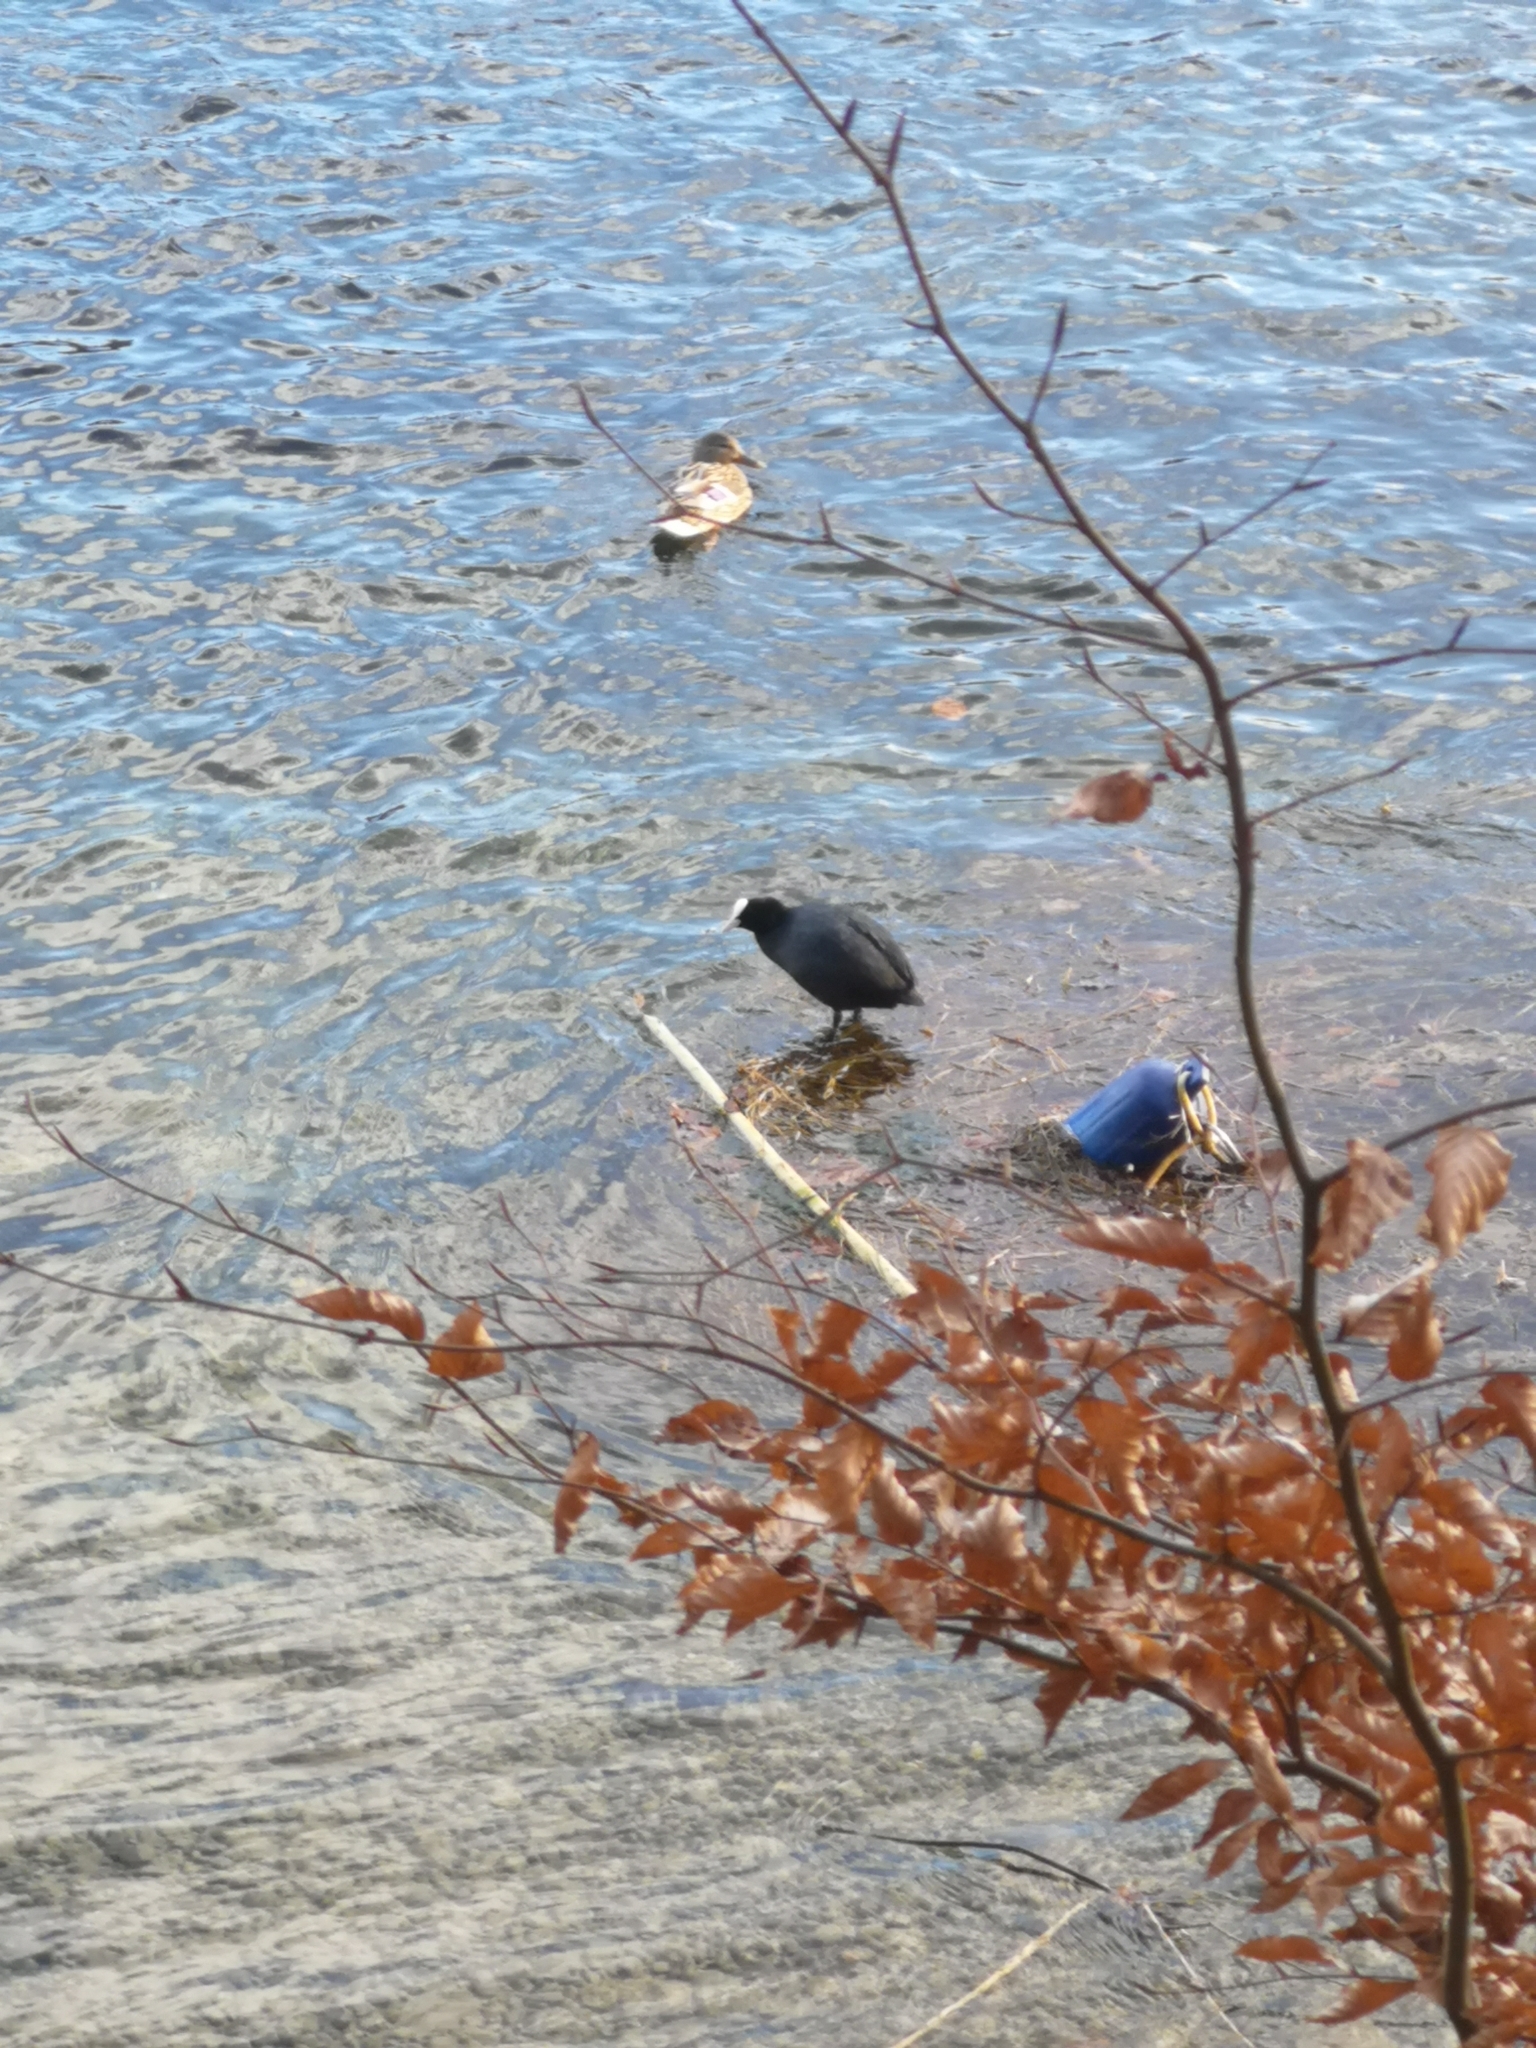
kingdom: Animalia
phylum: Chordata
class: Aves
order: Gruiformes
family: Rallidae
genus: Fulica
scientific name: Fulica atra
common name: Eurasian coot
